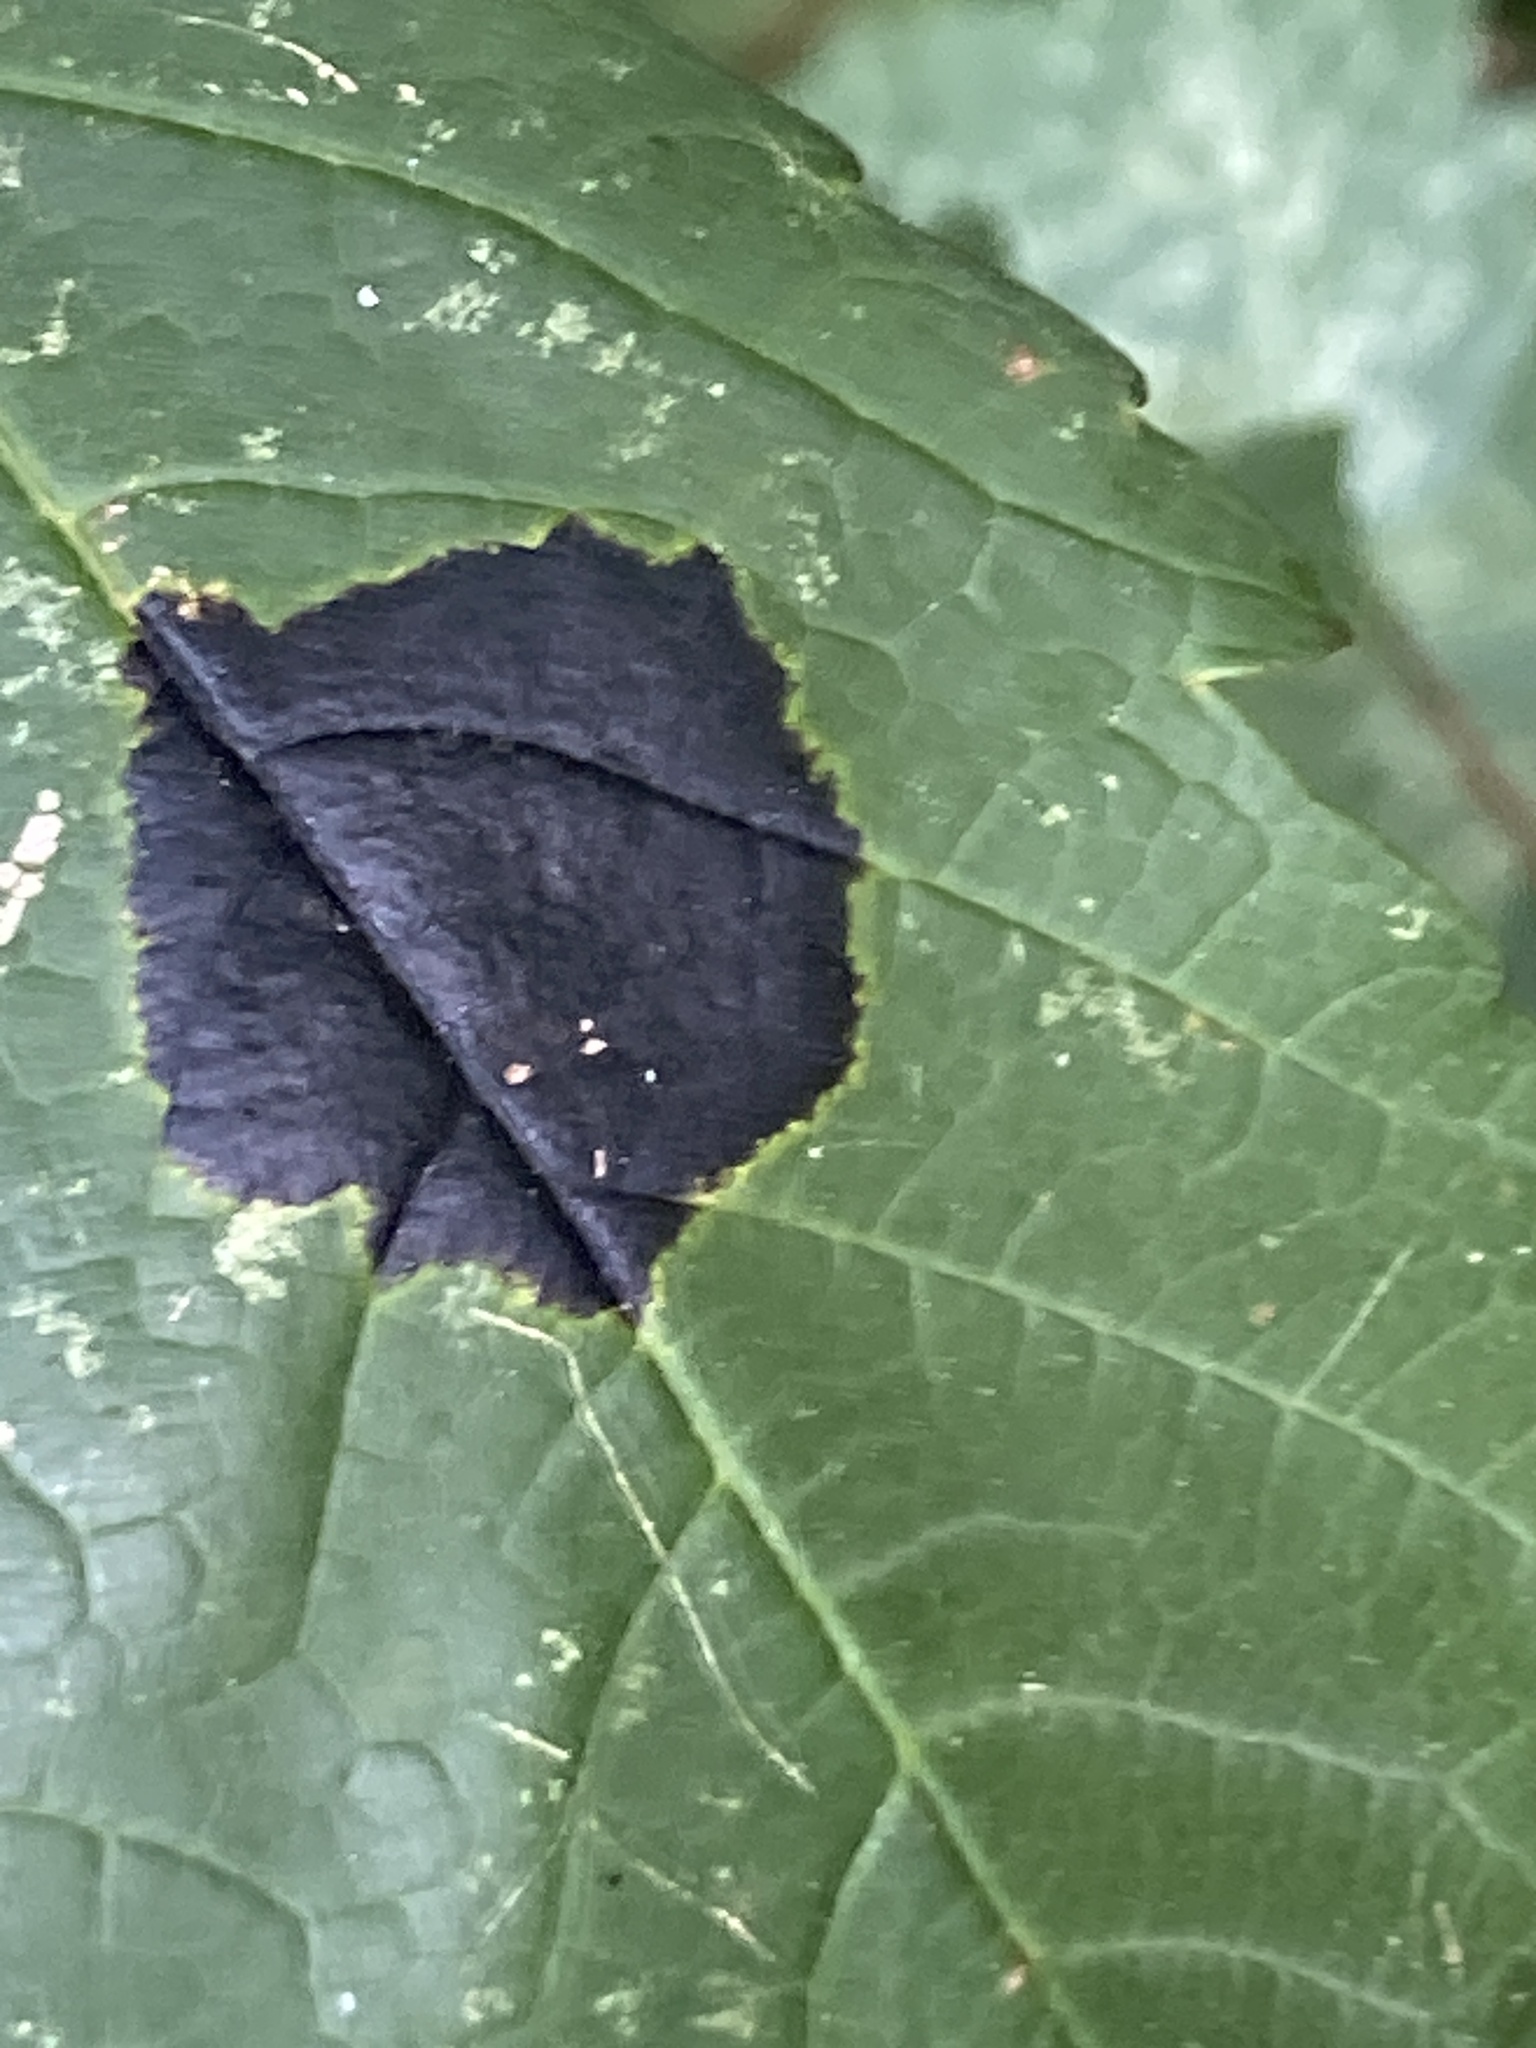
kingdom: Fungi
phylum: Ascomycota
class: Leotiomycetes
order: Rhytismatales
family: Rhytismataceae
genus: Rhytisma
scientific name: Rhytisma acerinum
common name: European tar spot
